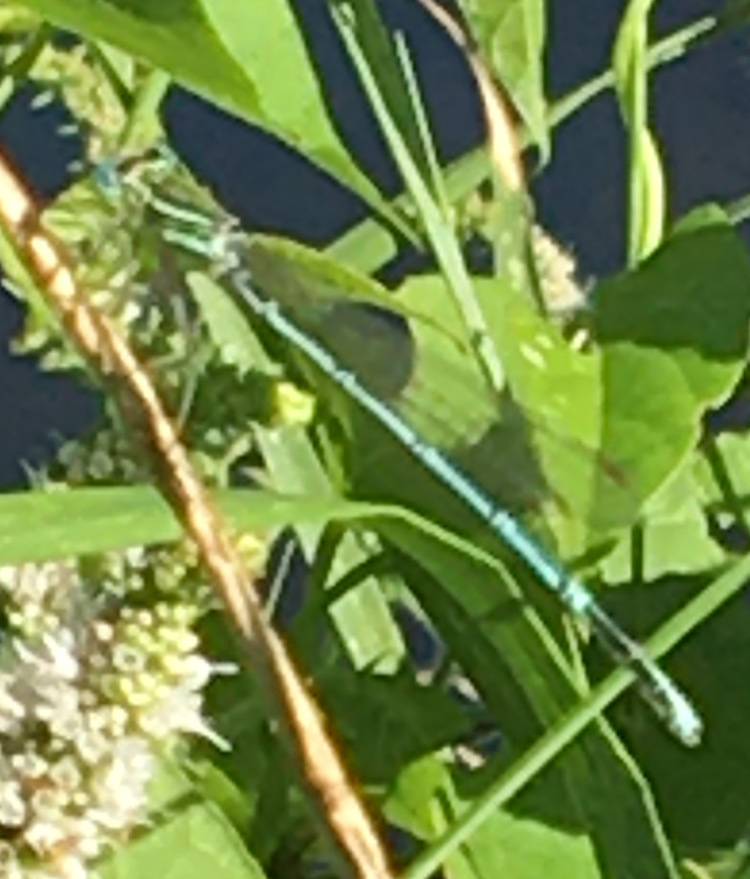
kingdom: Animalia
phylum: Arthropoda
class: Insecta
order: Odonata
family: Platycnemididae
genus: Platycnemis
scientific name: Platycnemis pennipes
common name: White-legged damselfly
